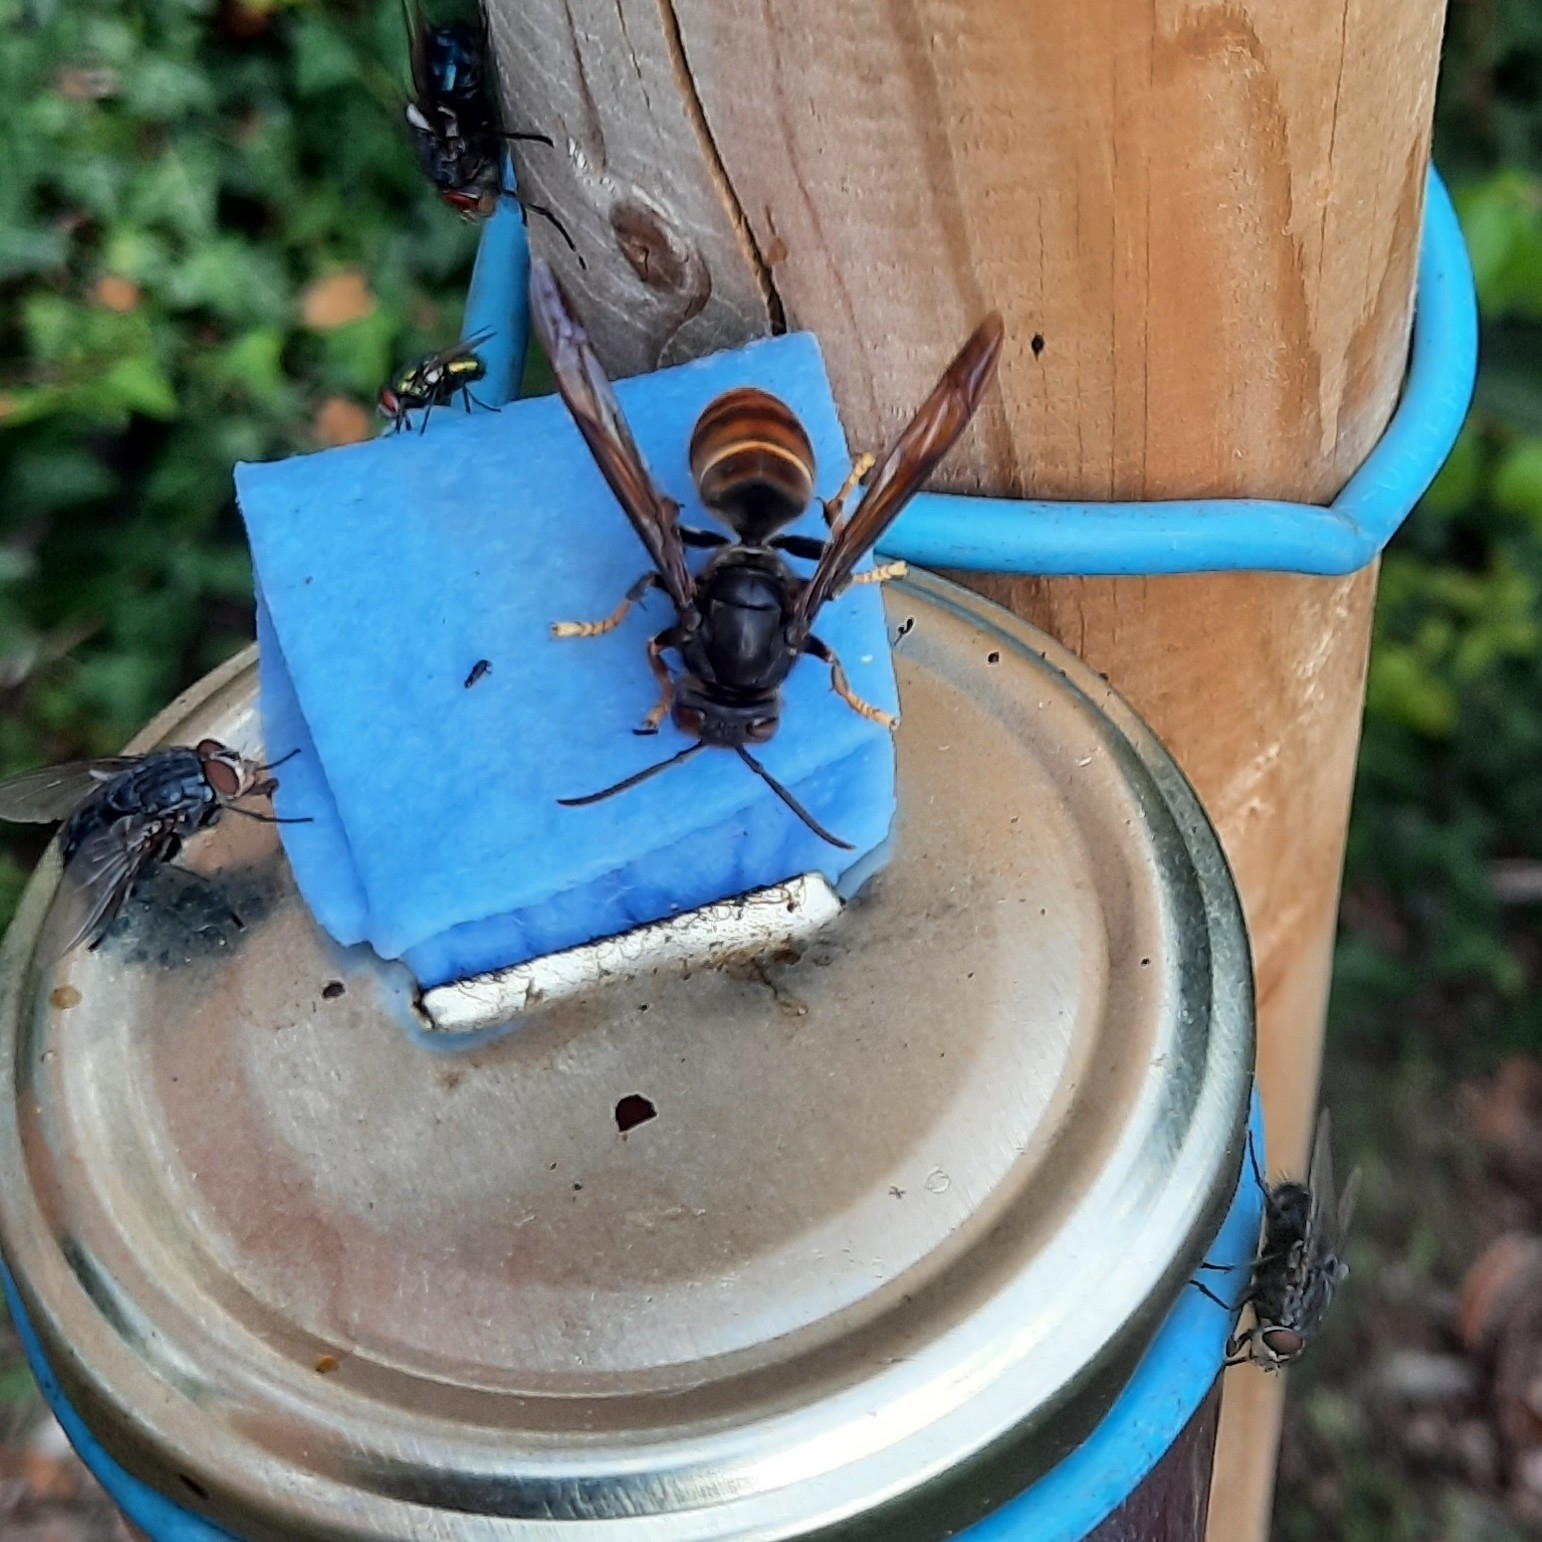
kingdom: Animalia
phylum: Arthropoda
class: Insecta
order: Hymenoptera
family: Vespidae
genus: Vespa
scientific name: Vespa velutina
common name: Asian hornet
